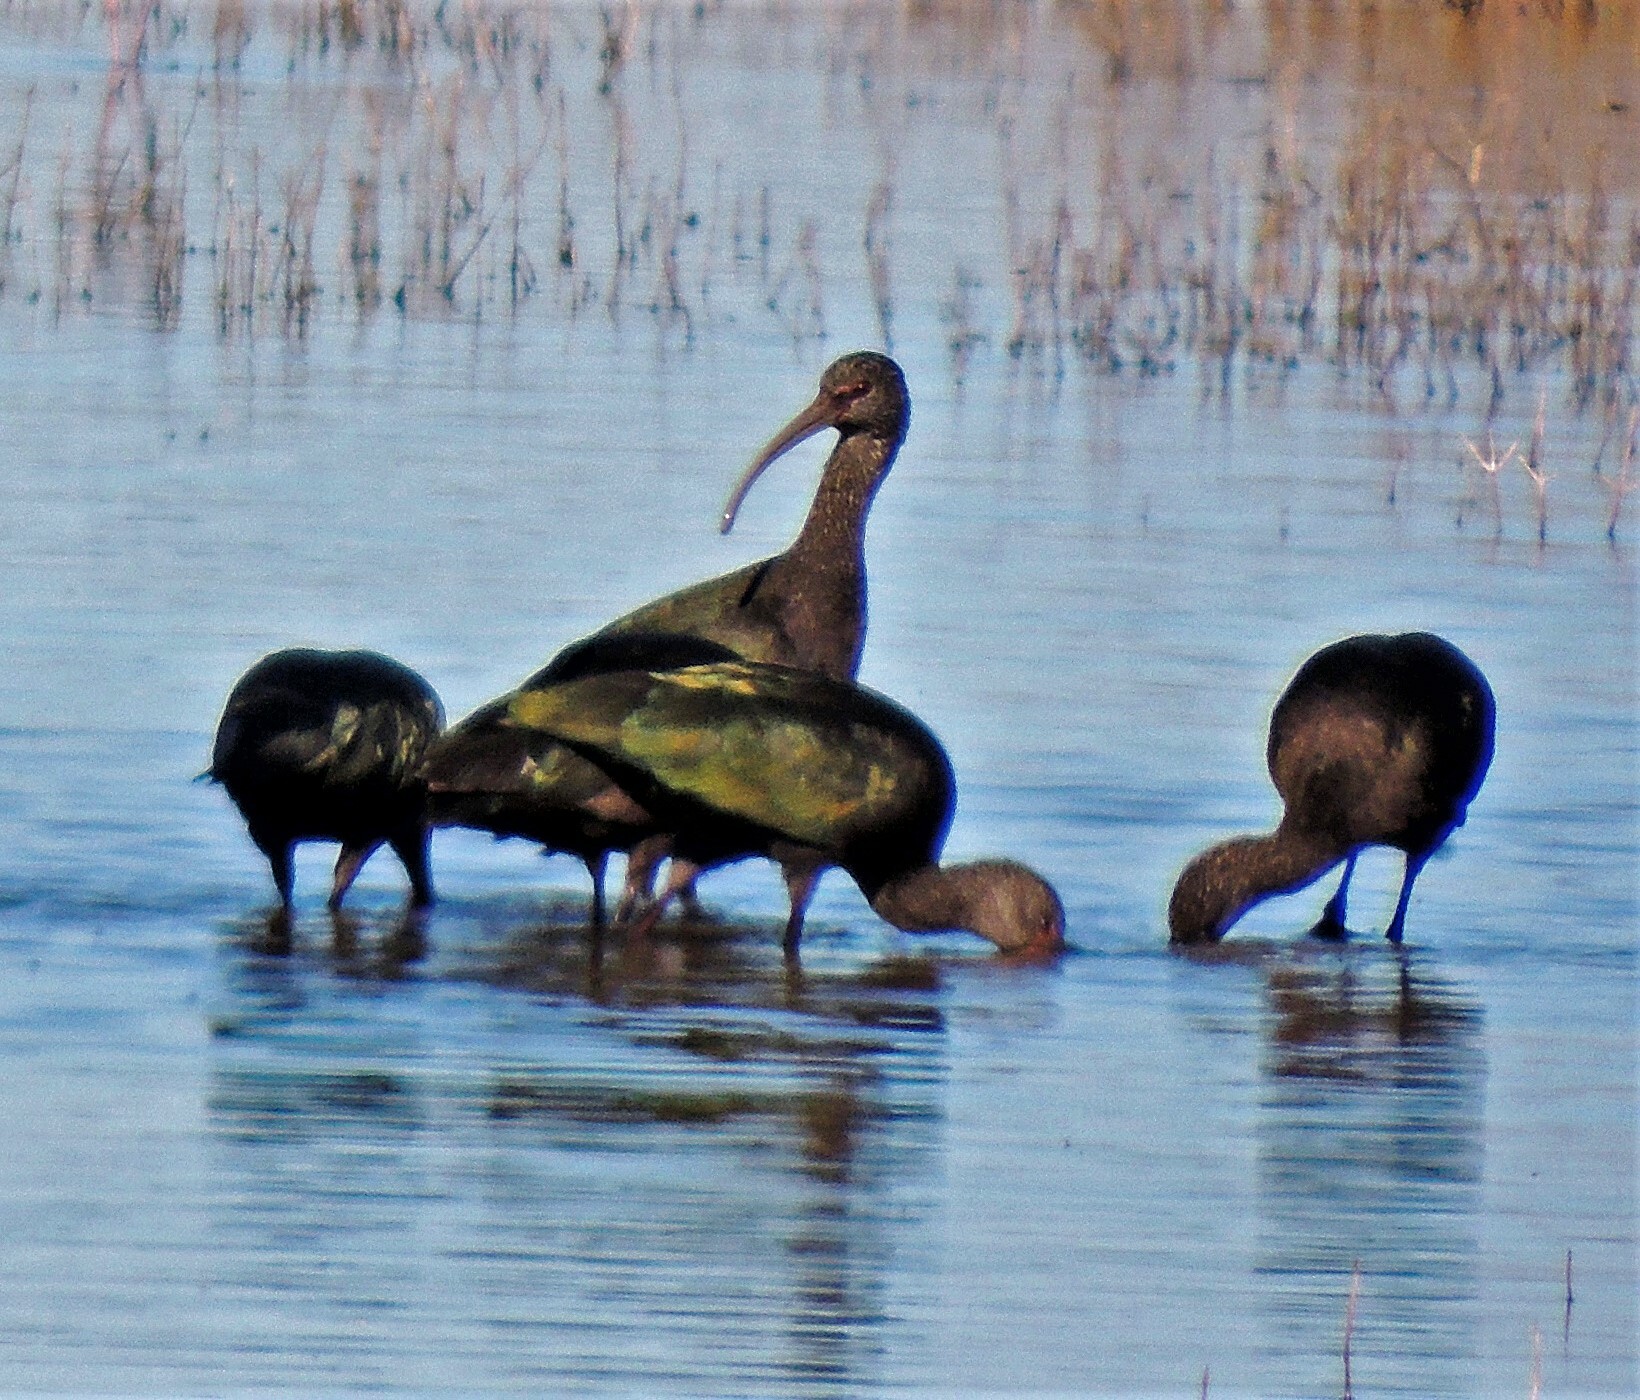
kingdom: Animalia
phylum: Chordata
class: Aves
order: Pelecaniformes
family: Threskiornithidae
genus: Plegadis
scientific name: Plegadis chihi
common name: White-faced ibis
